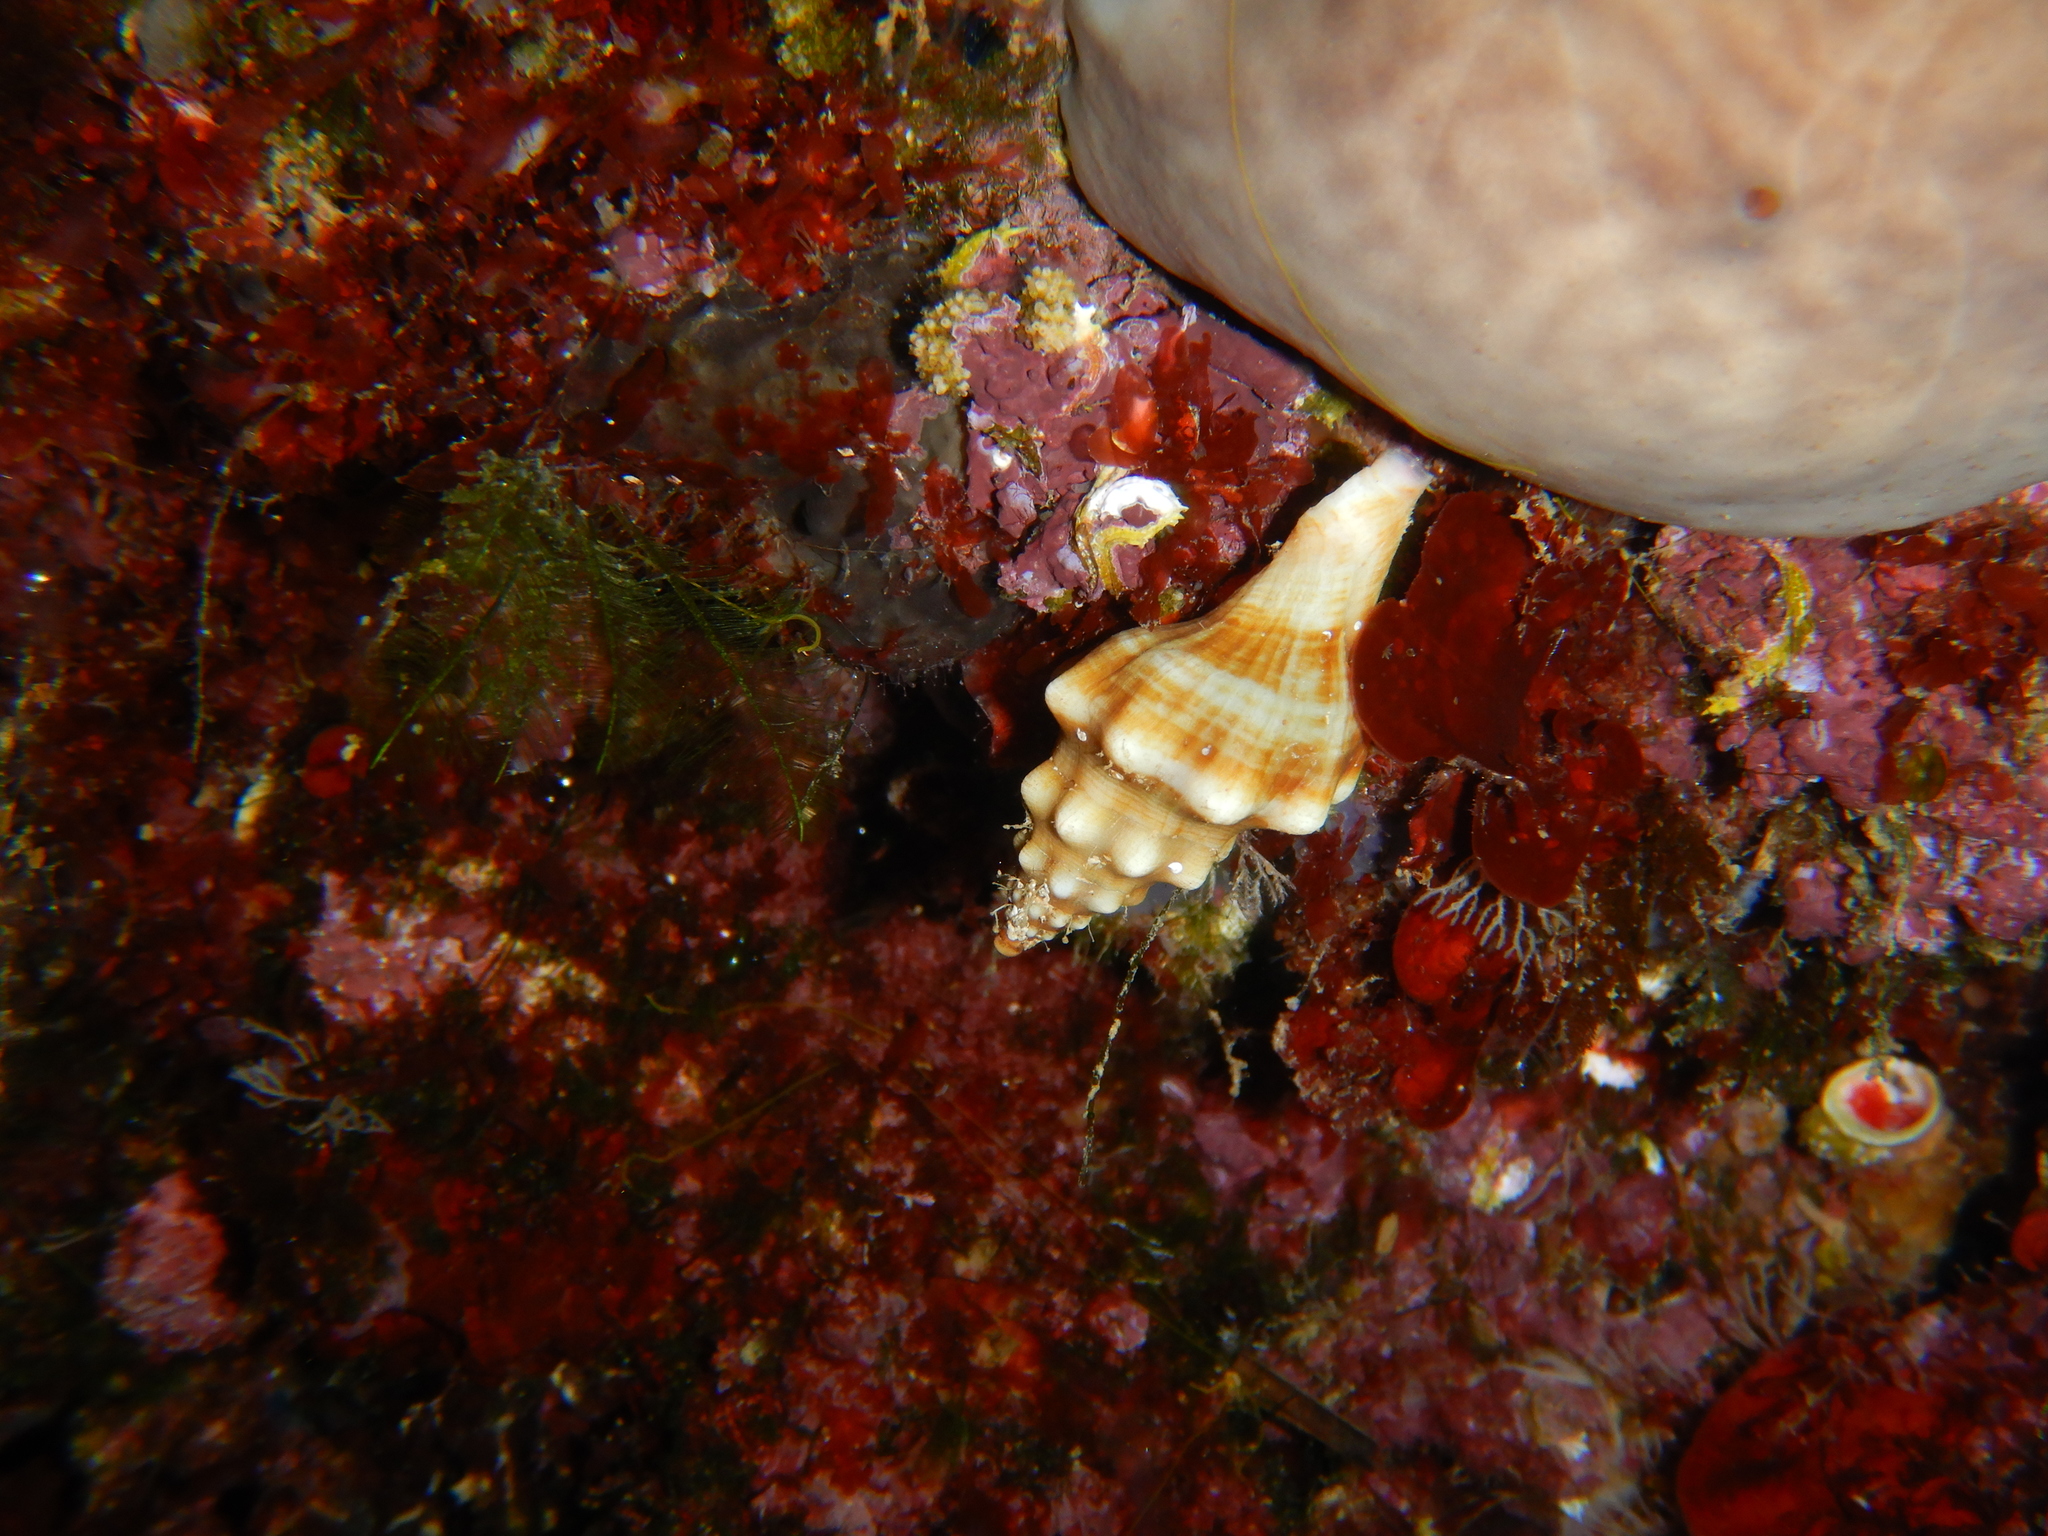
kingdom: Animalia
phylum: Mollusca
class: Gastropoda
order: Neogastropoda
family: Fasciolariidae
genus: Tarantinaea
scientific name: Tarantinaea lignaria
